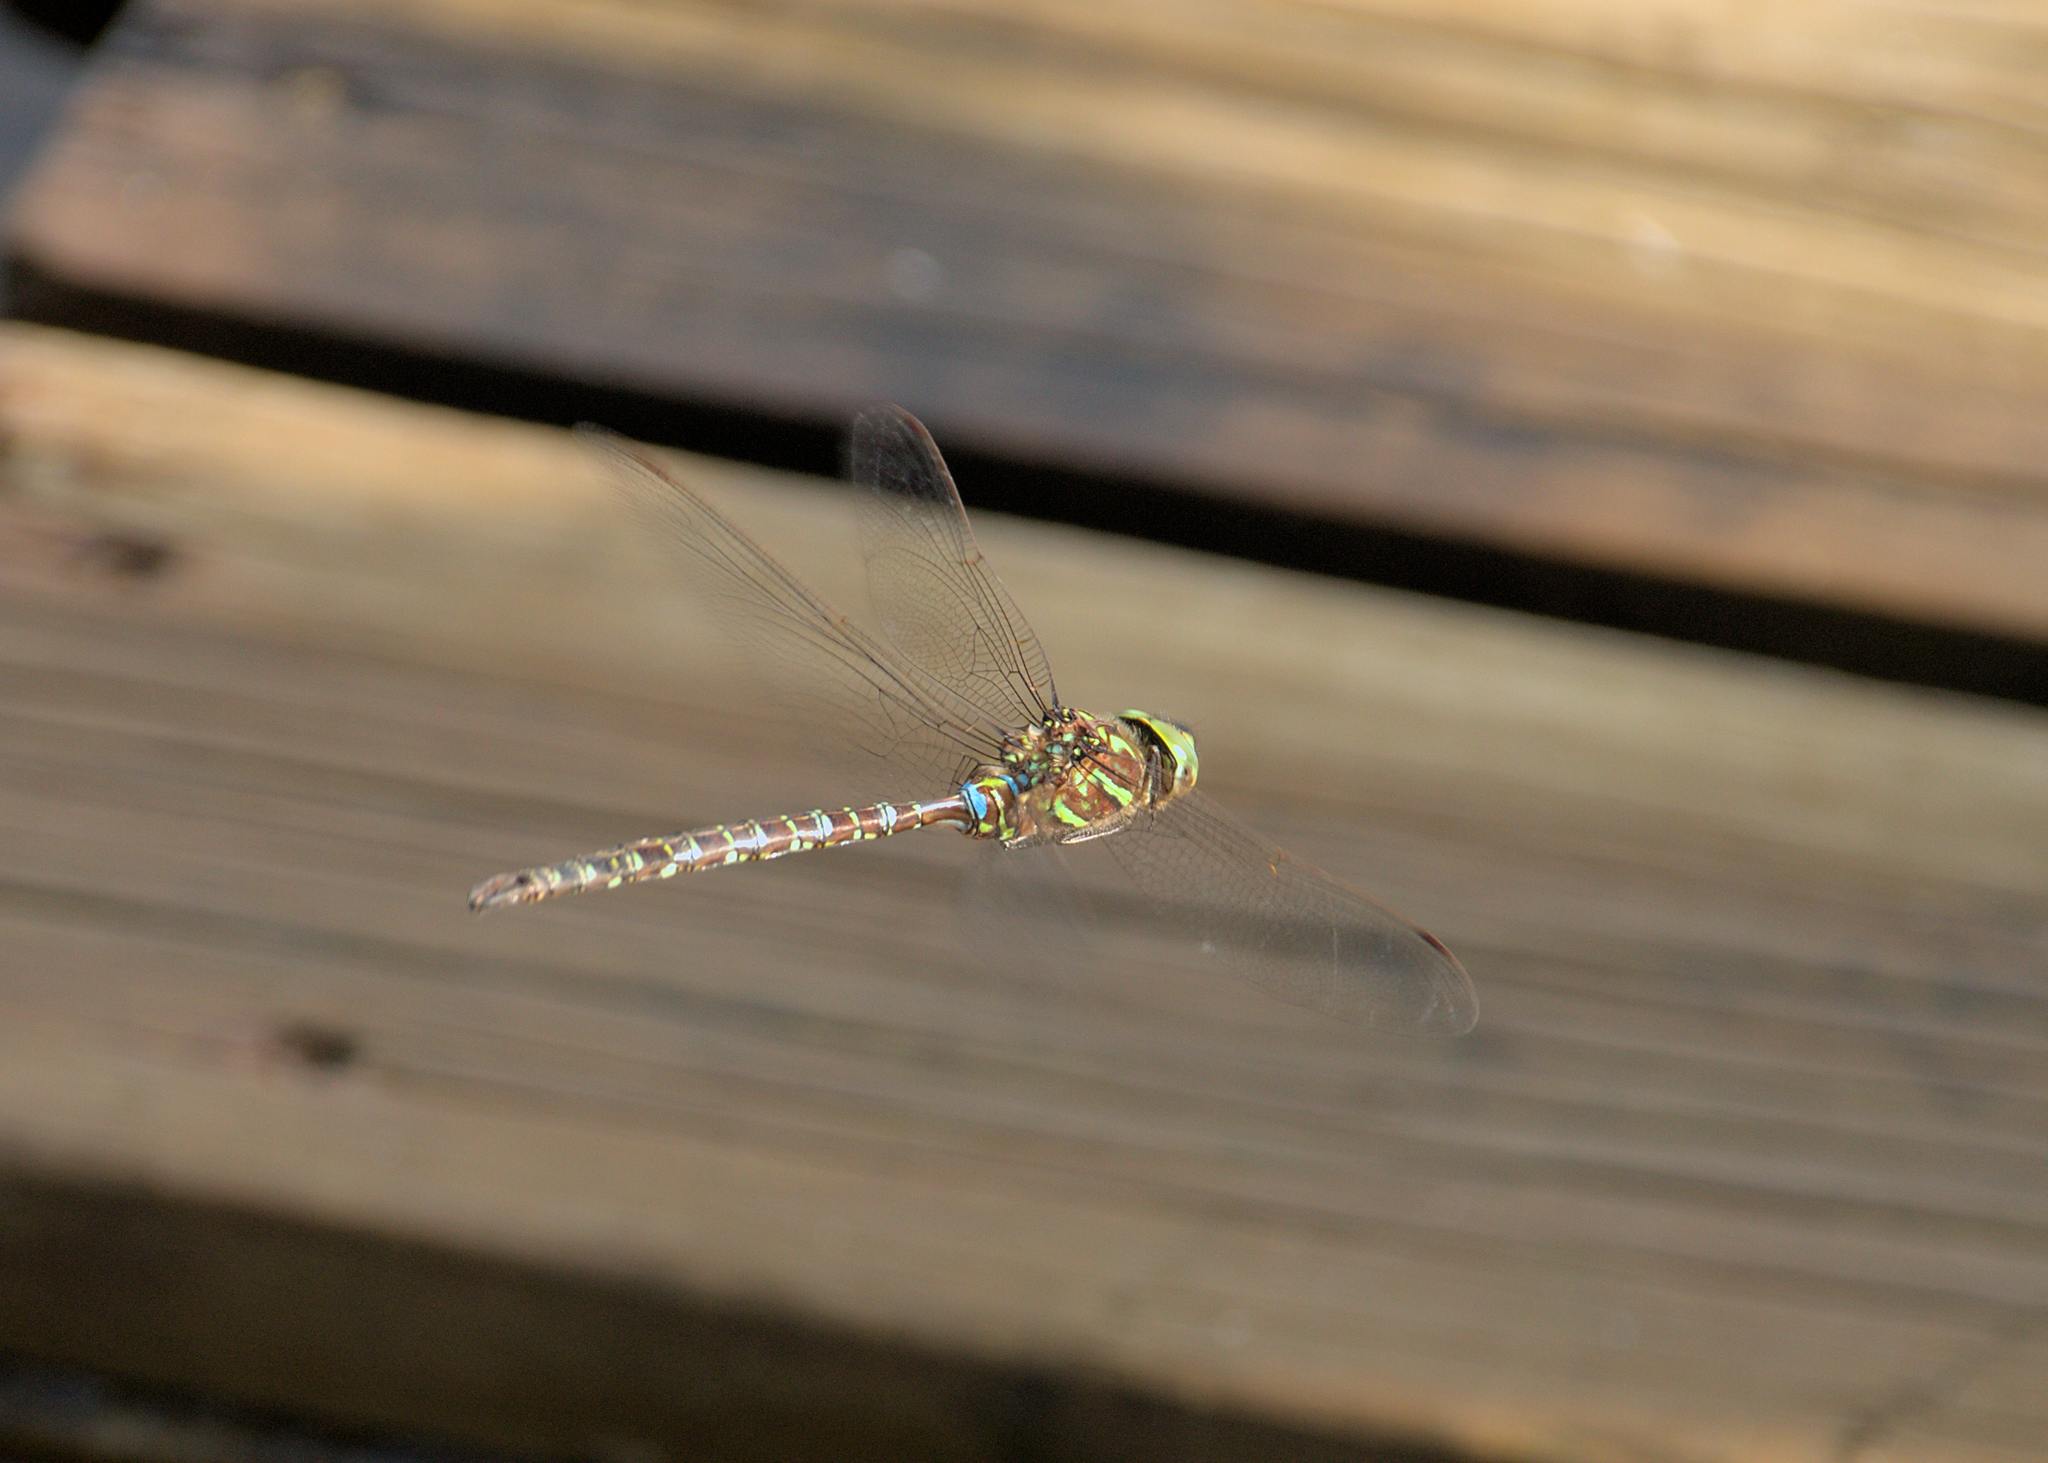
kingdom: Animalia
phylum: Arthropoda
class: Insecta
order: Odonata
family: Aeshnidae
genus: Aeshna
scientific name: Aeshna umbrosa
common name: Shadow darner
